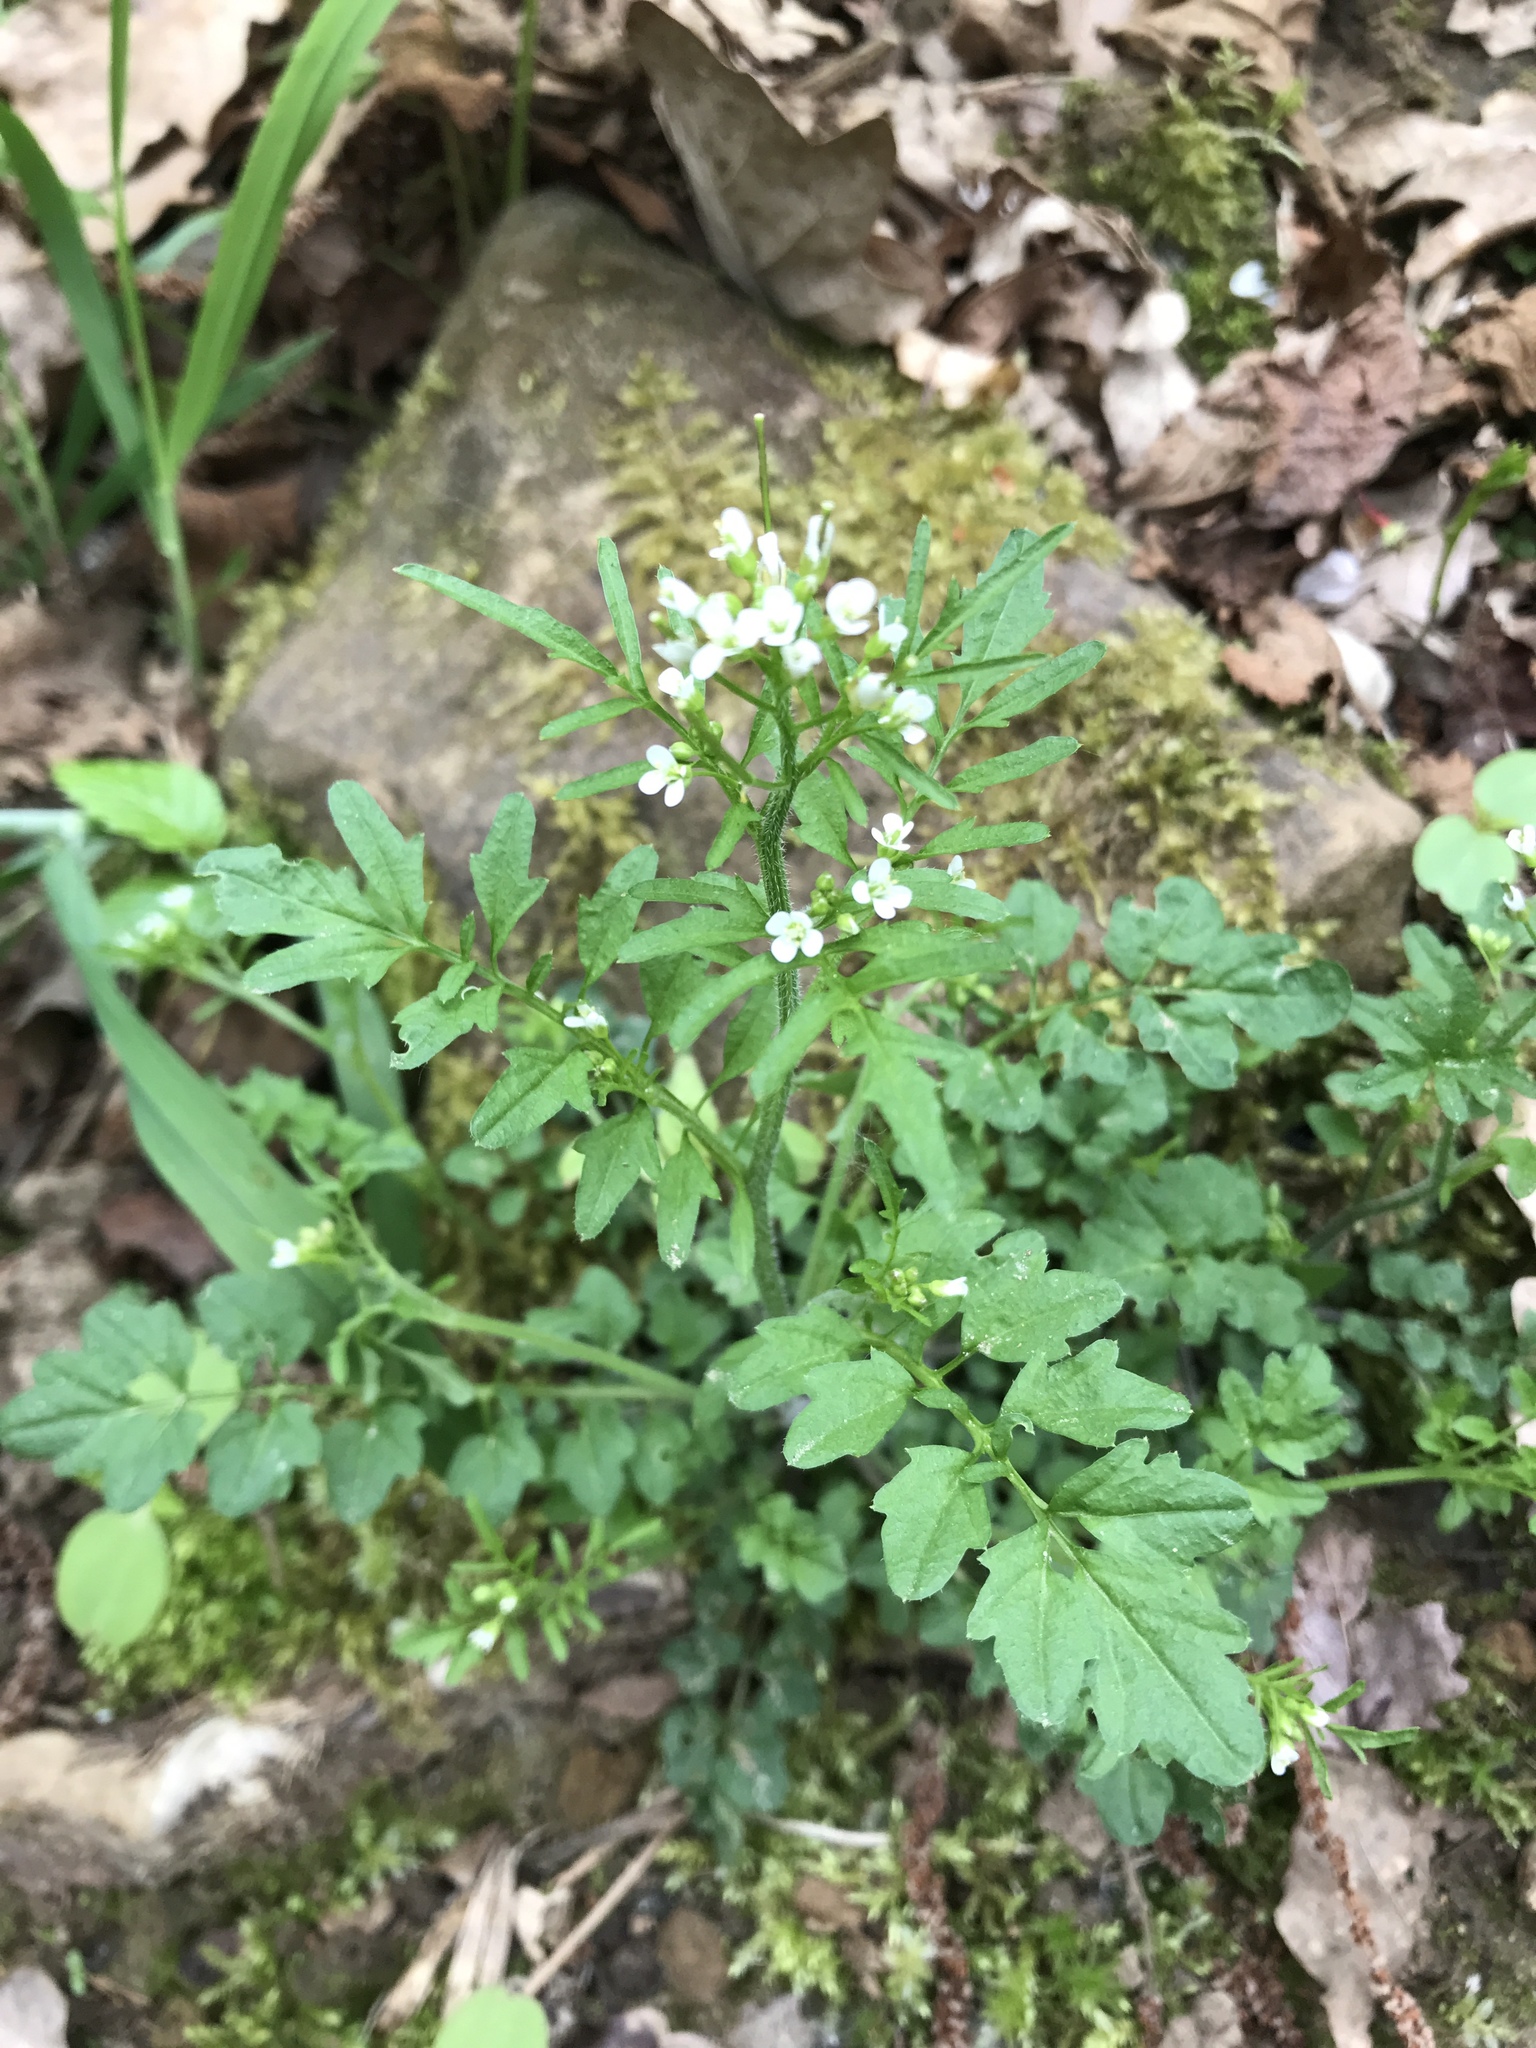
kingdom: Plantae
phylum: Tracheophyta
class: Magnoliopsida
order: Brassicales
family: Brassicaceae
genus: Cardamine
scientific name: Cardamine flexuosa
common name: Woodland bittercress
